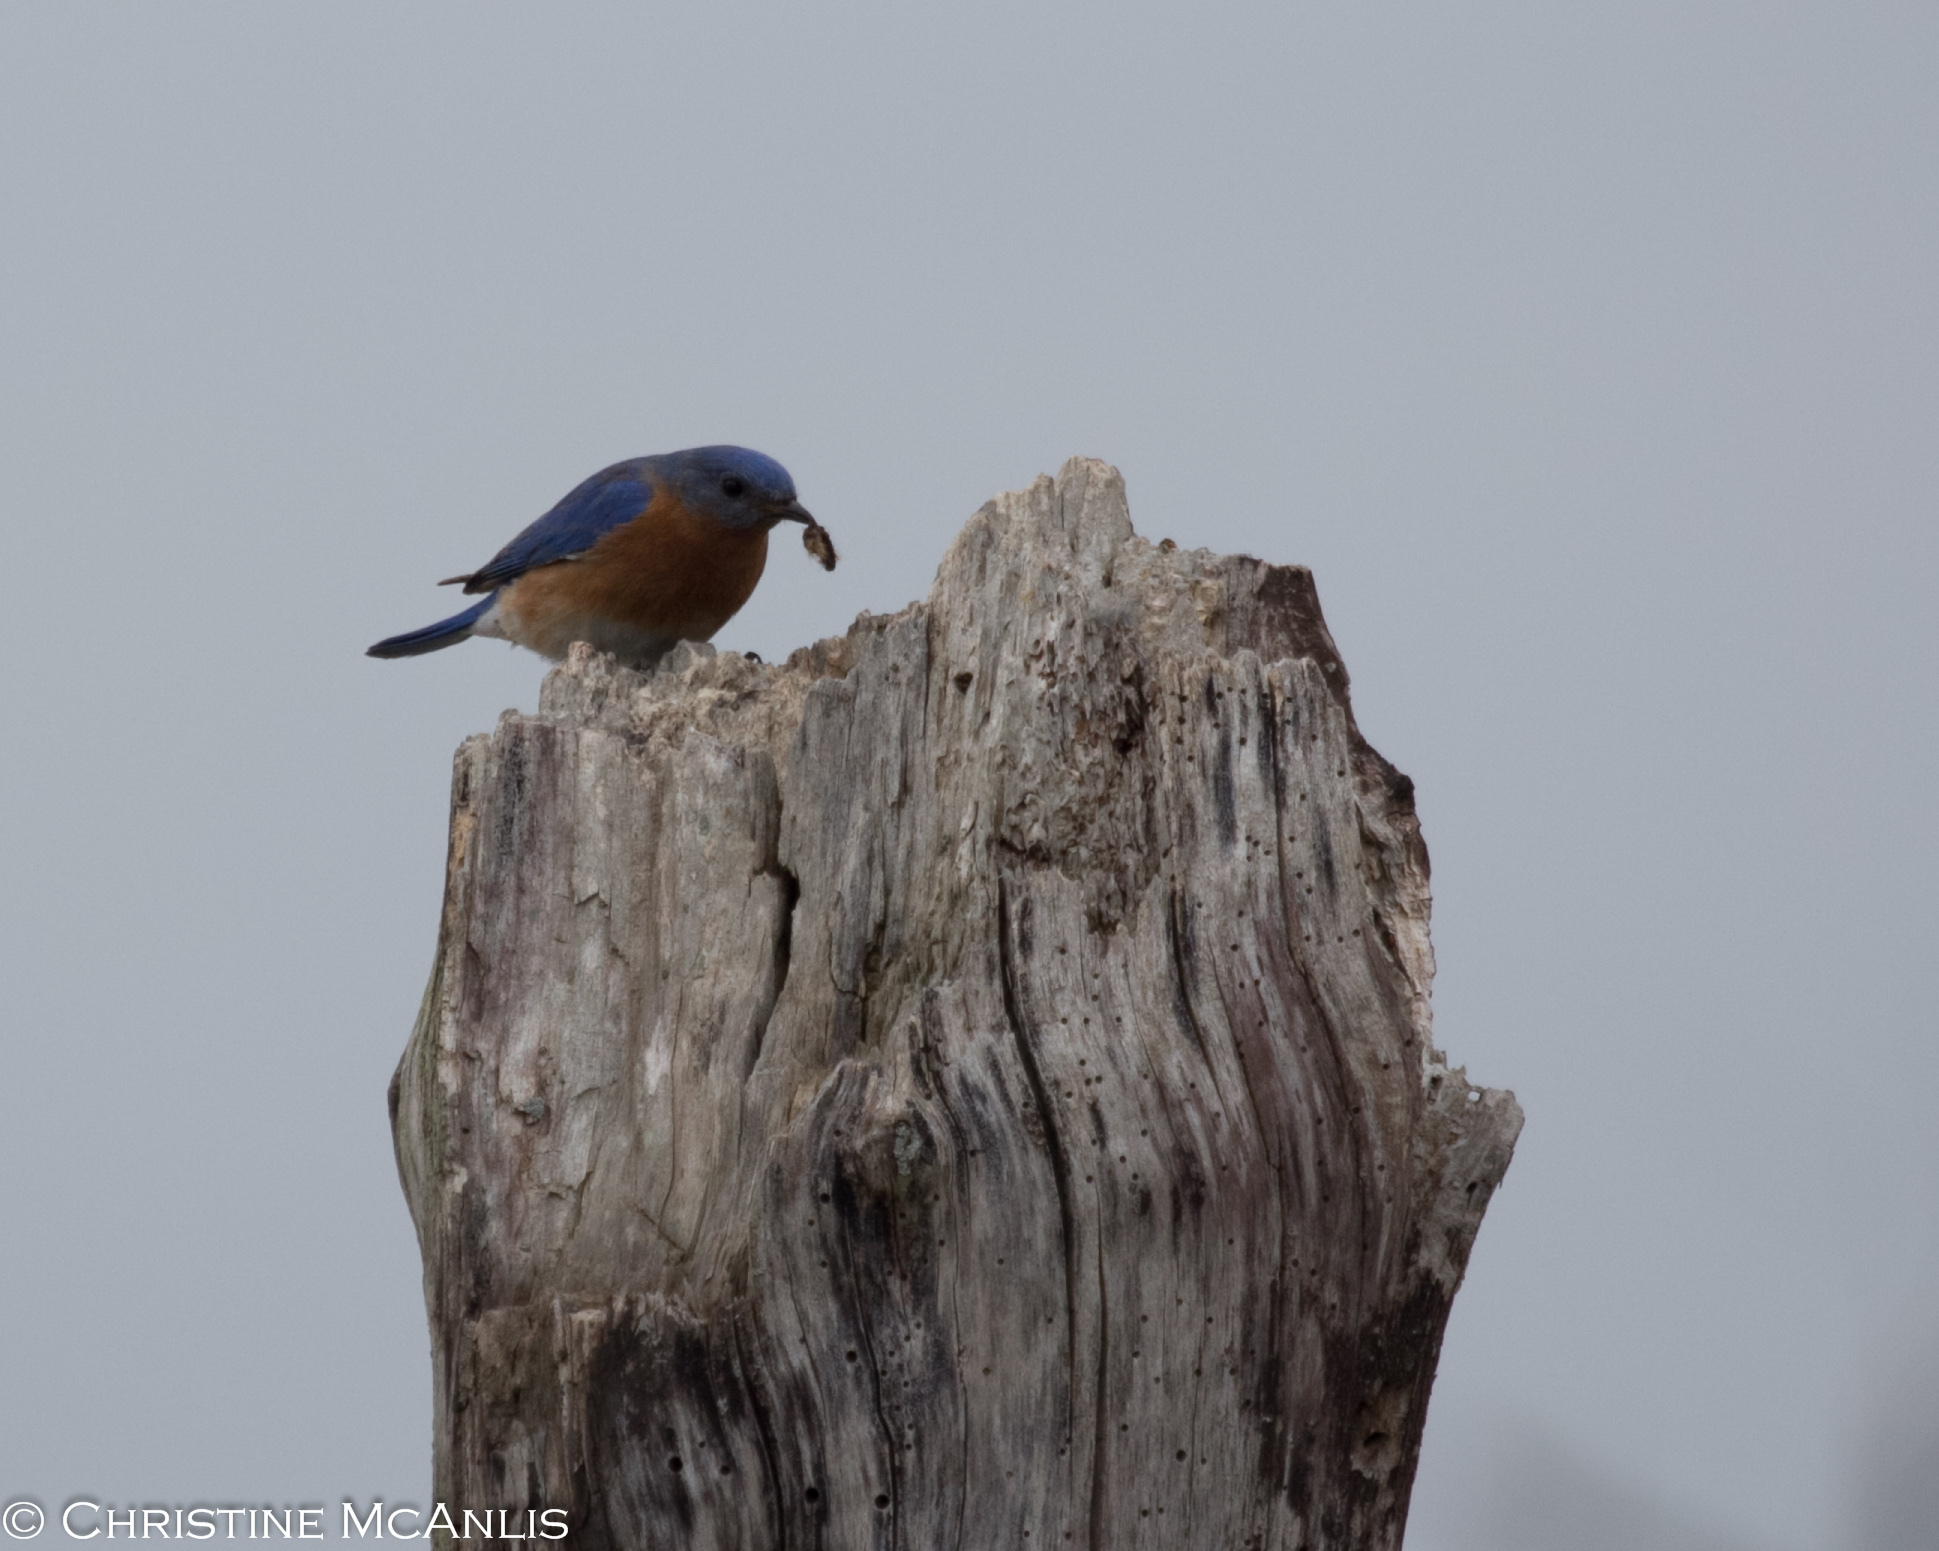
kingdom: Animalia
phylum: Chordata
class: Aves
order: Passeriformes
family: Turdidae
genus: Sialia
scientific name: Sialia sialis
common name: Eastern bluebird
